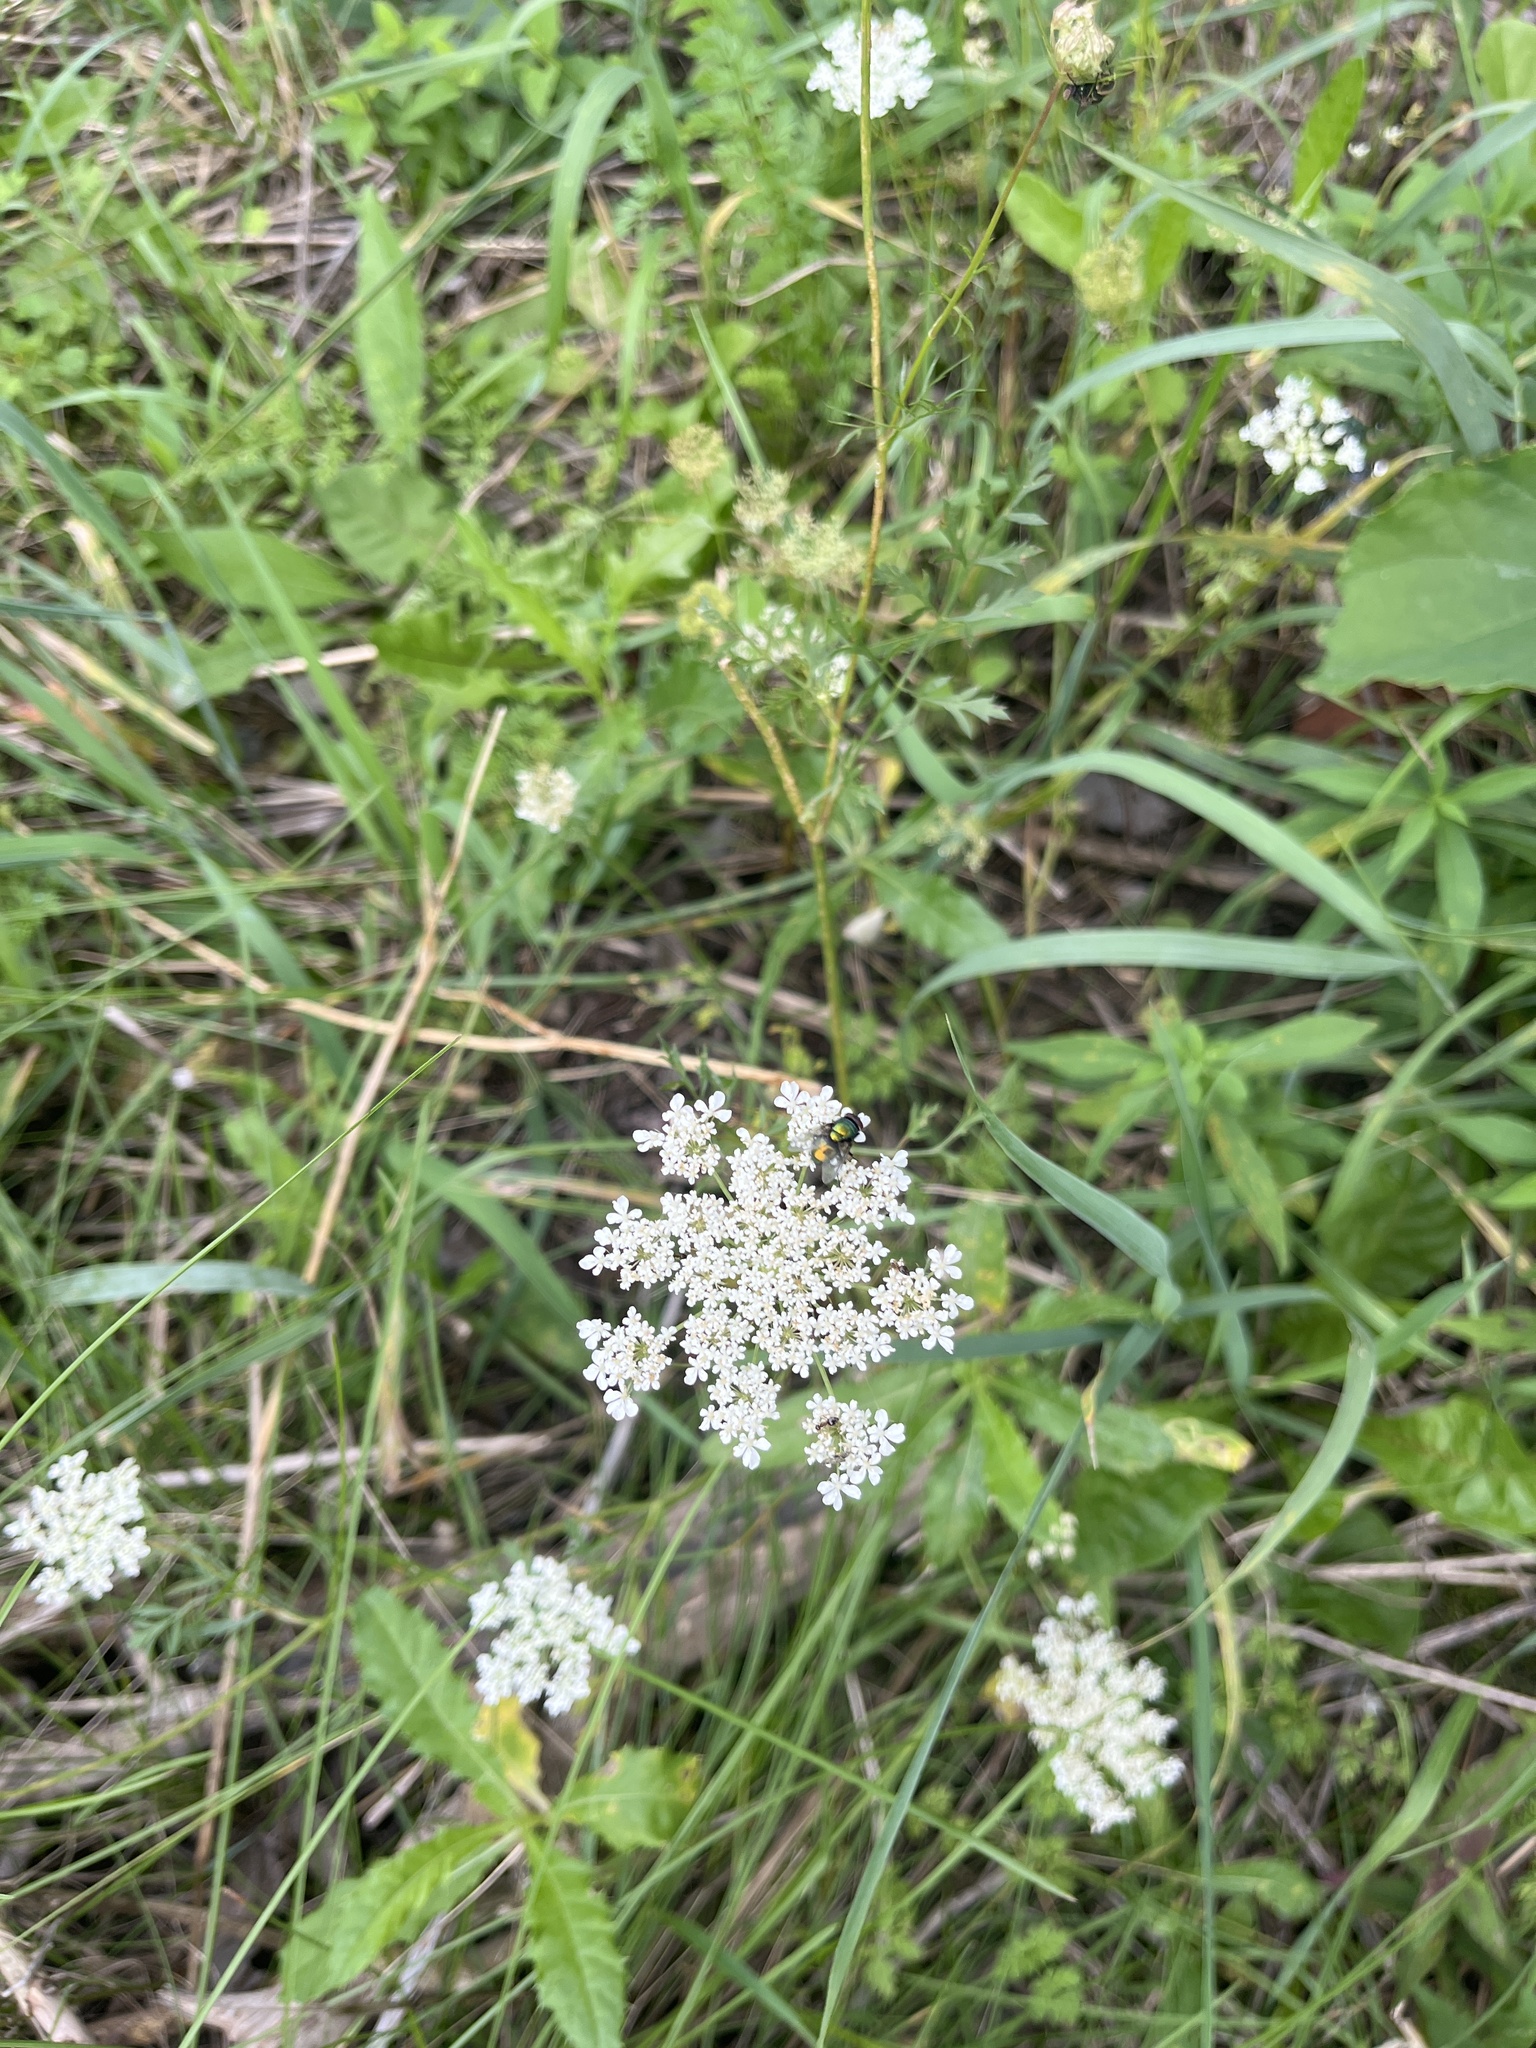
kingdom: Plantae
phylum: Tracheophyta
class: Magnoliopsida
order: Apiales
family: Apiaceae
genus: Daucus
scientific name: Daucus carota
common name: Wild carrot
